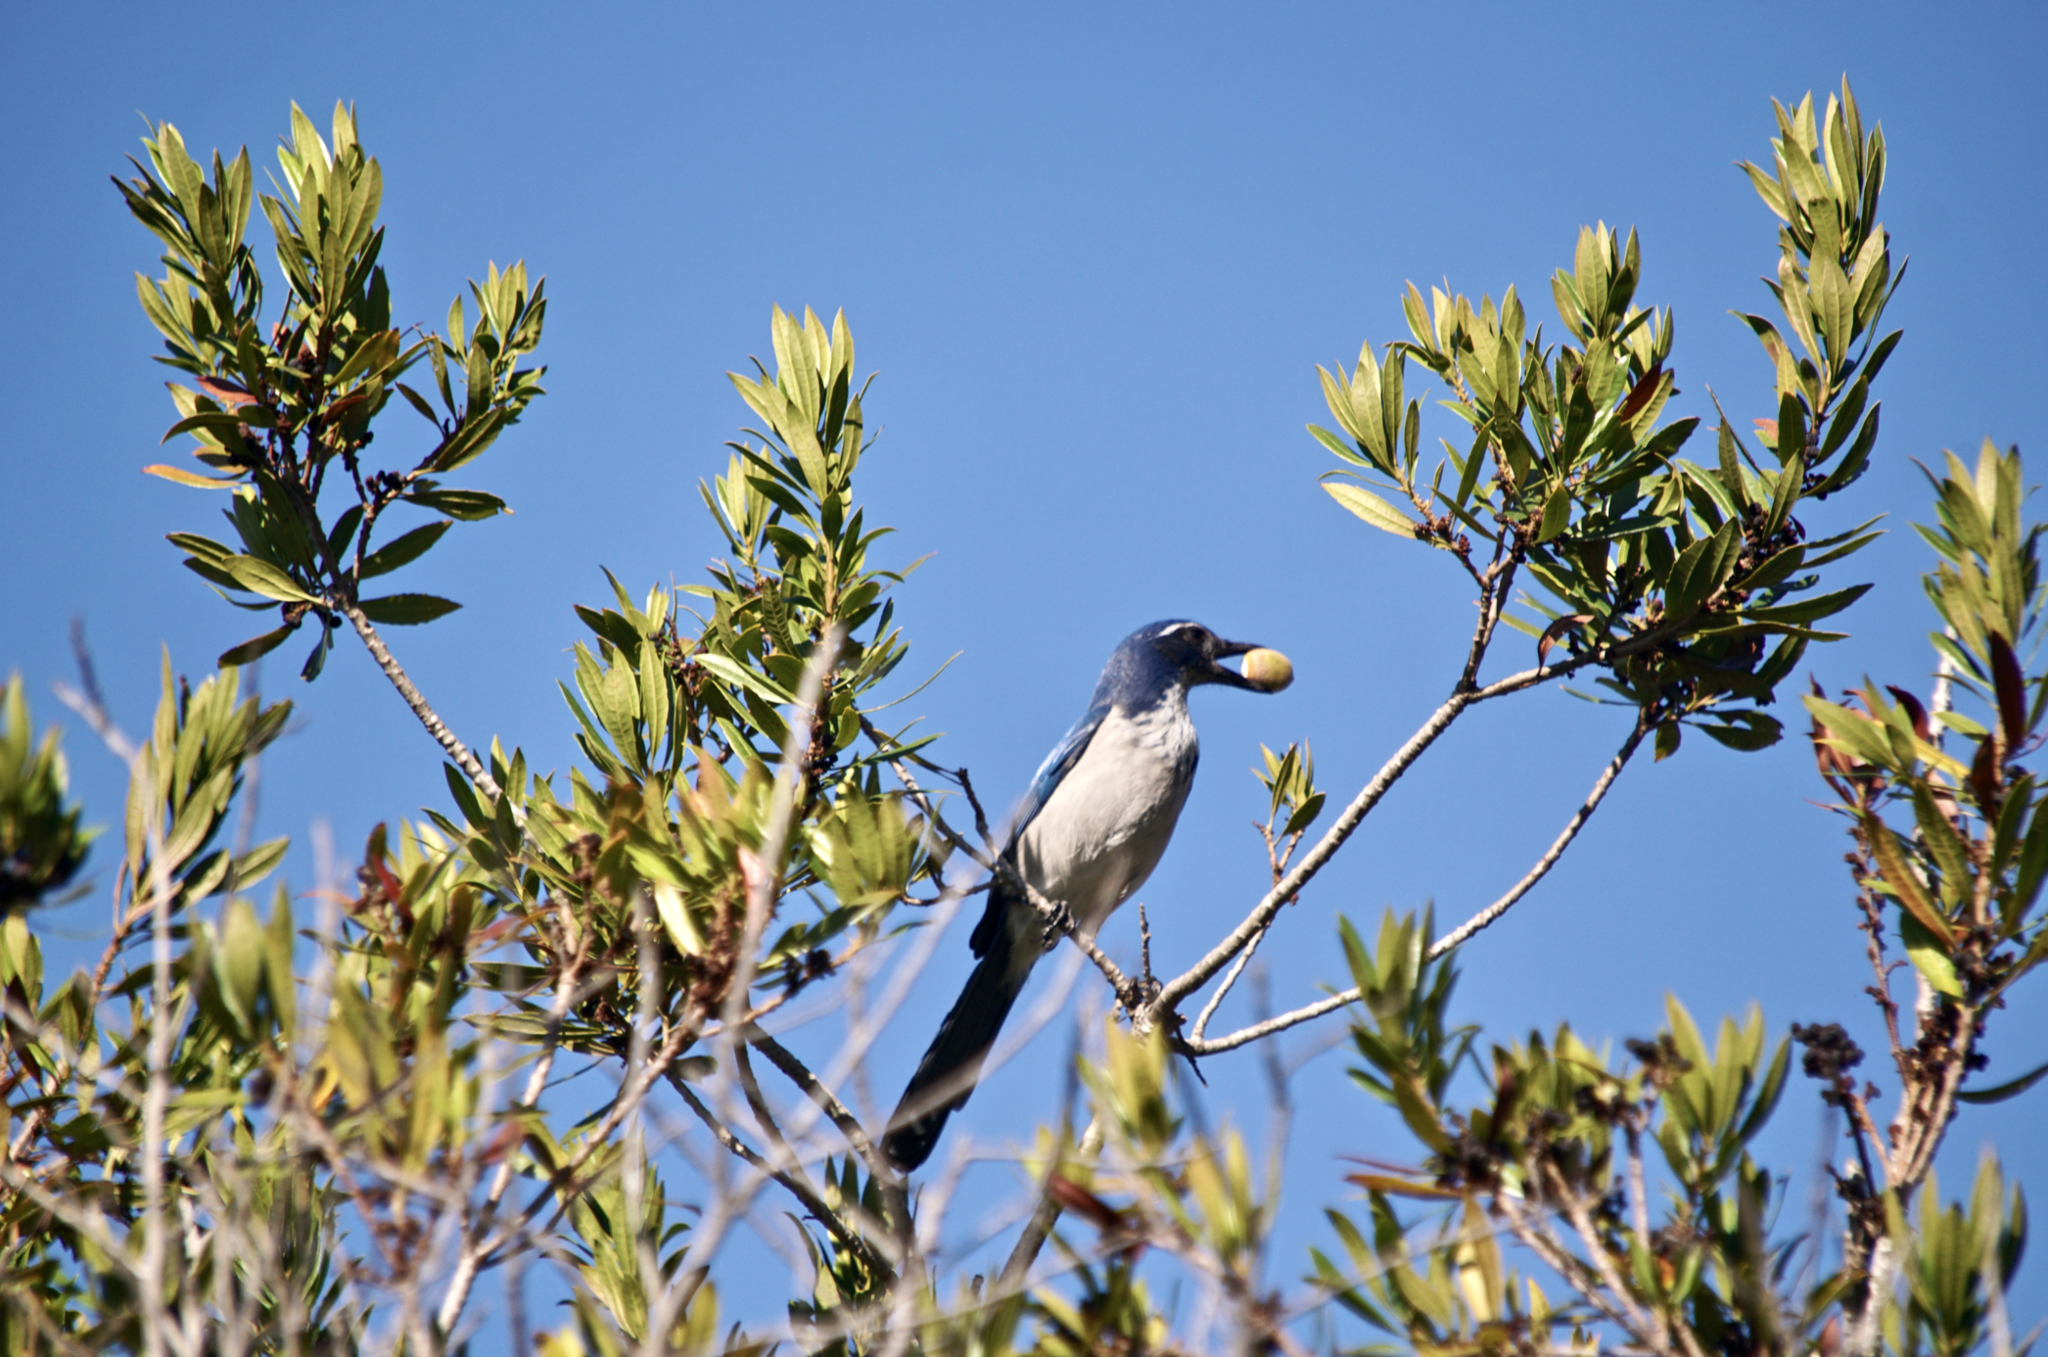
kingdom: Animalia
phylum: Chordata
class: Aves
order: Passeriformes
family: Corvidae
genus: Aphelocoma
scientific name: Aphelocoma californica
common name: California scrub-jay
